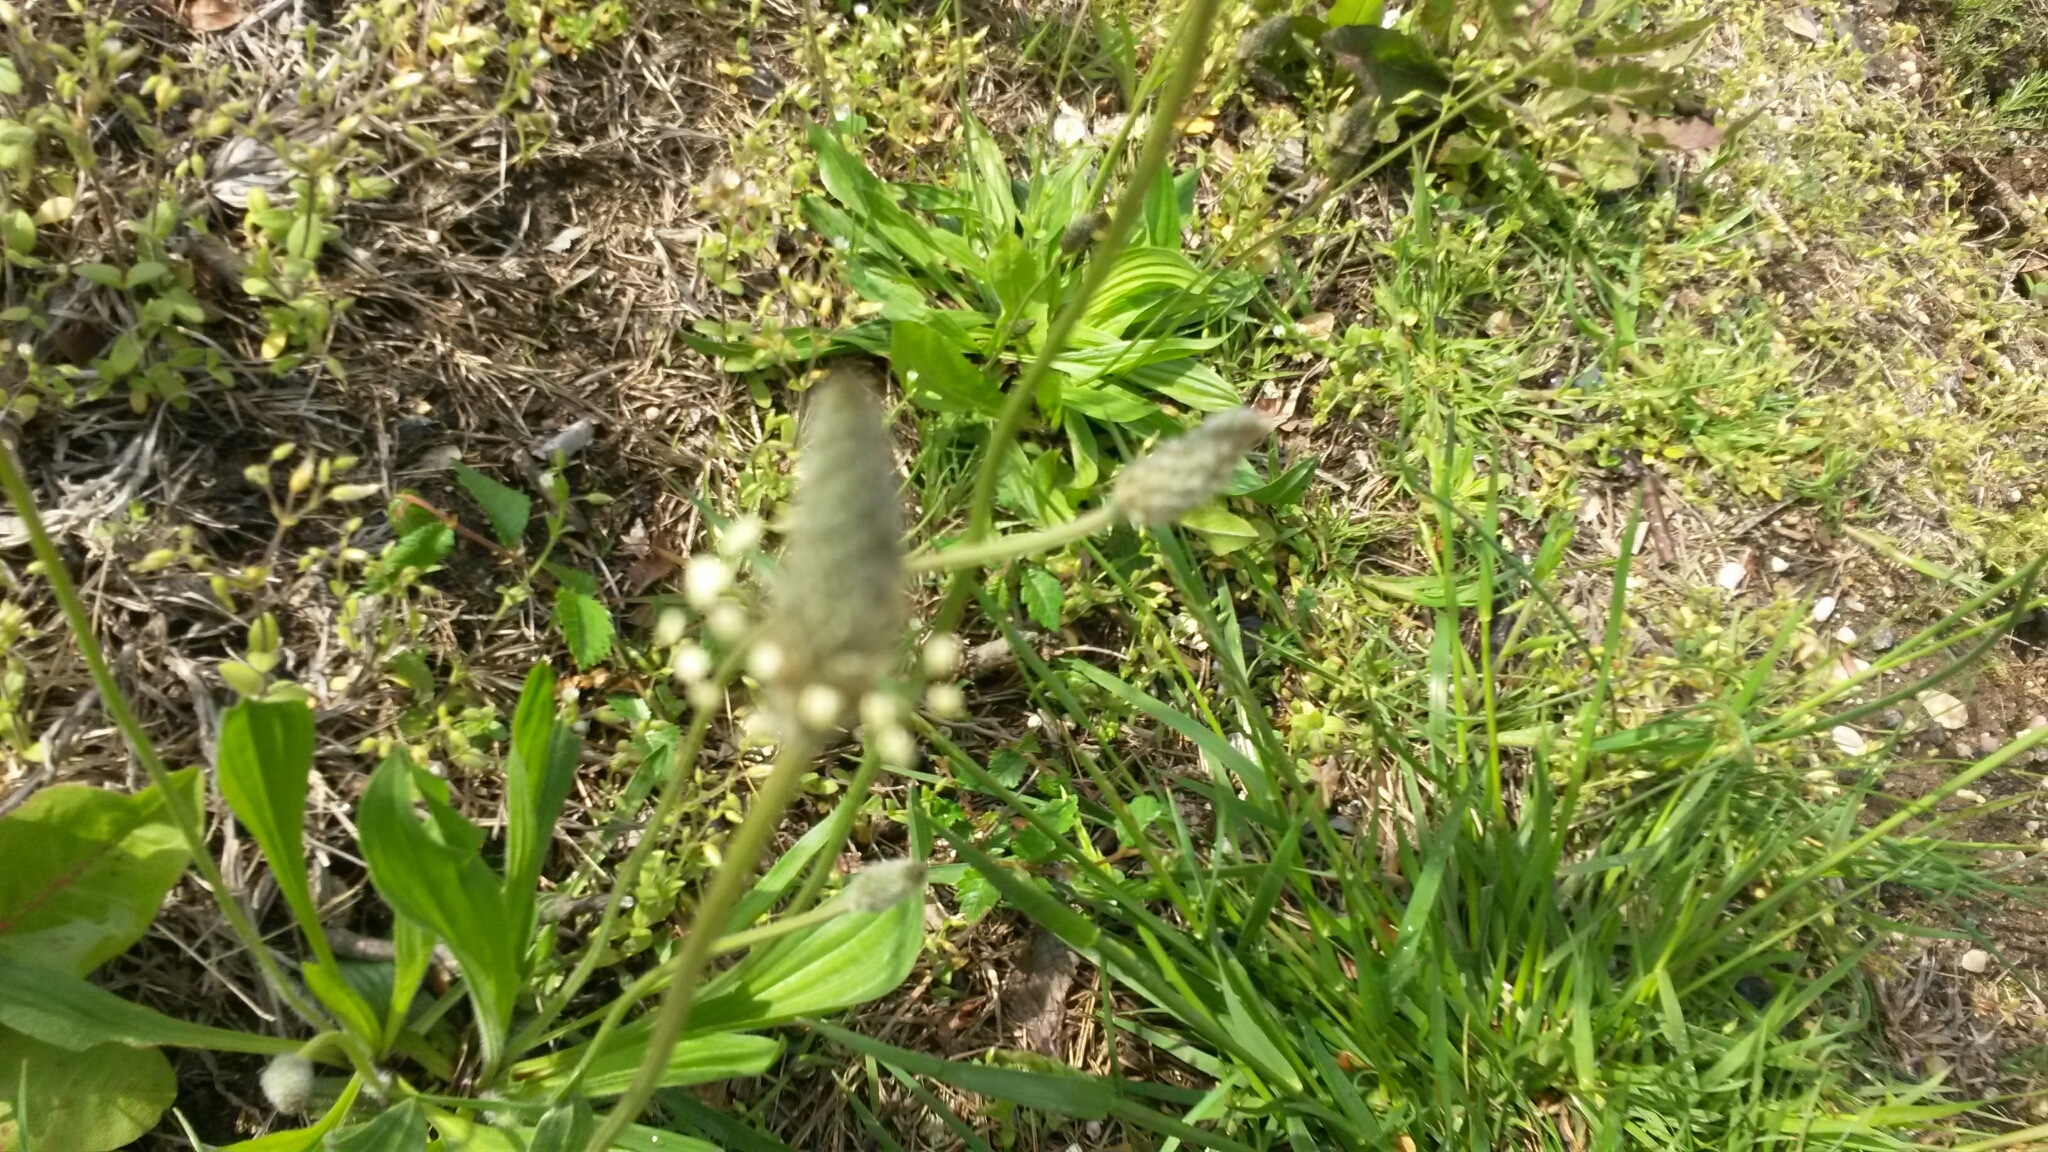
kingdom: Plantae
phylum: Tracheophyta
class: Magnoliopsida
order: Lamiales
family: Plantaginaceae
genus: Plantago
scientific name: Plantago lanceolata
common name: Ribwort plantain
